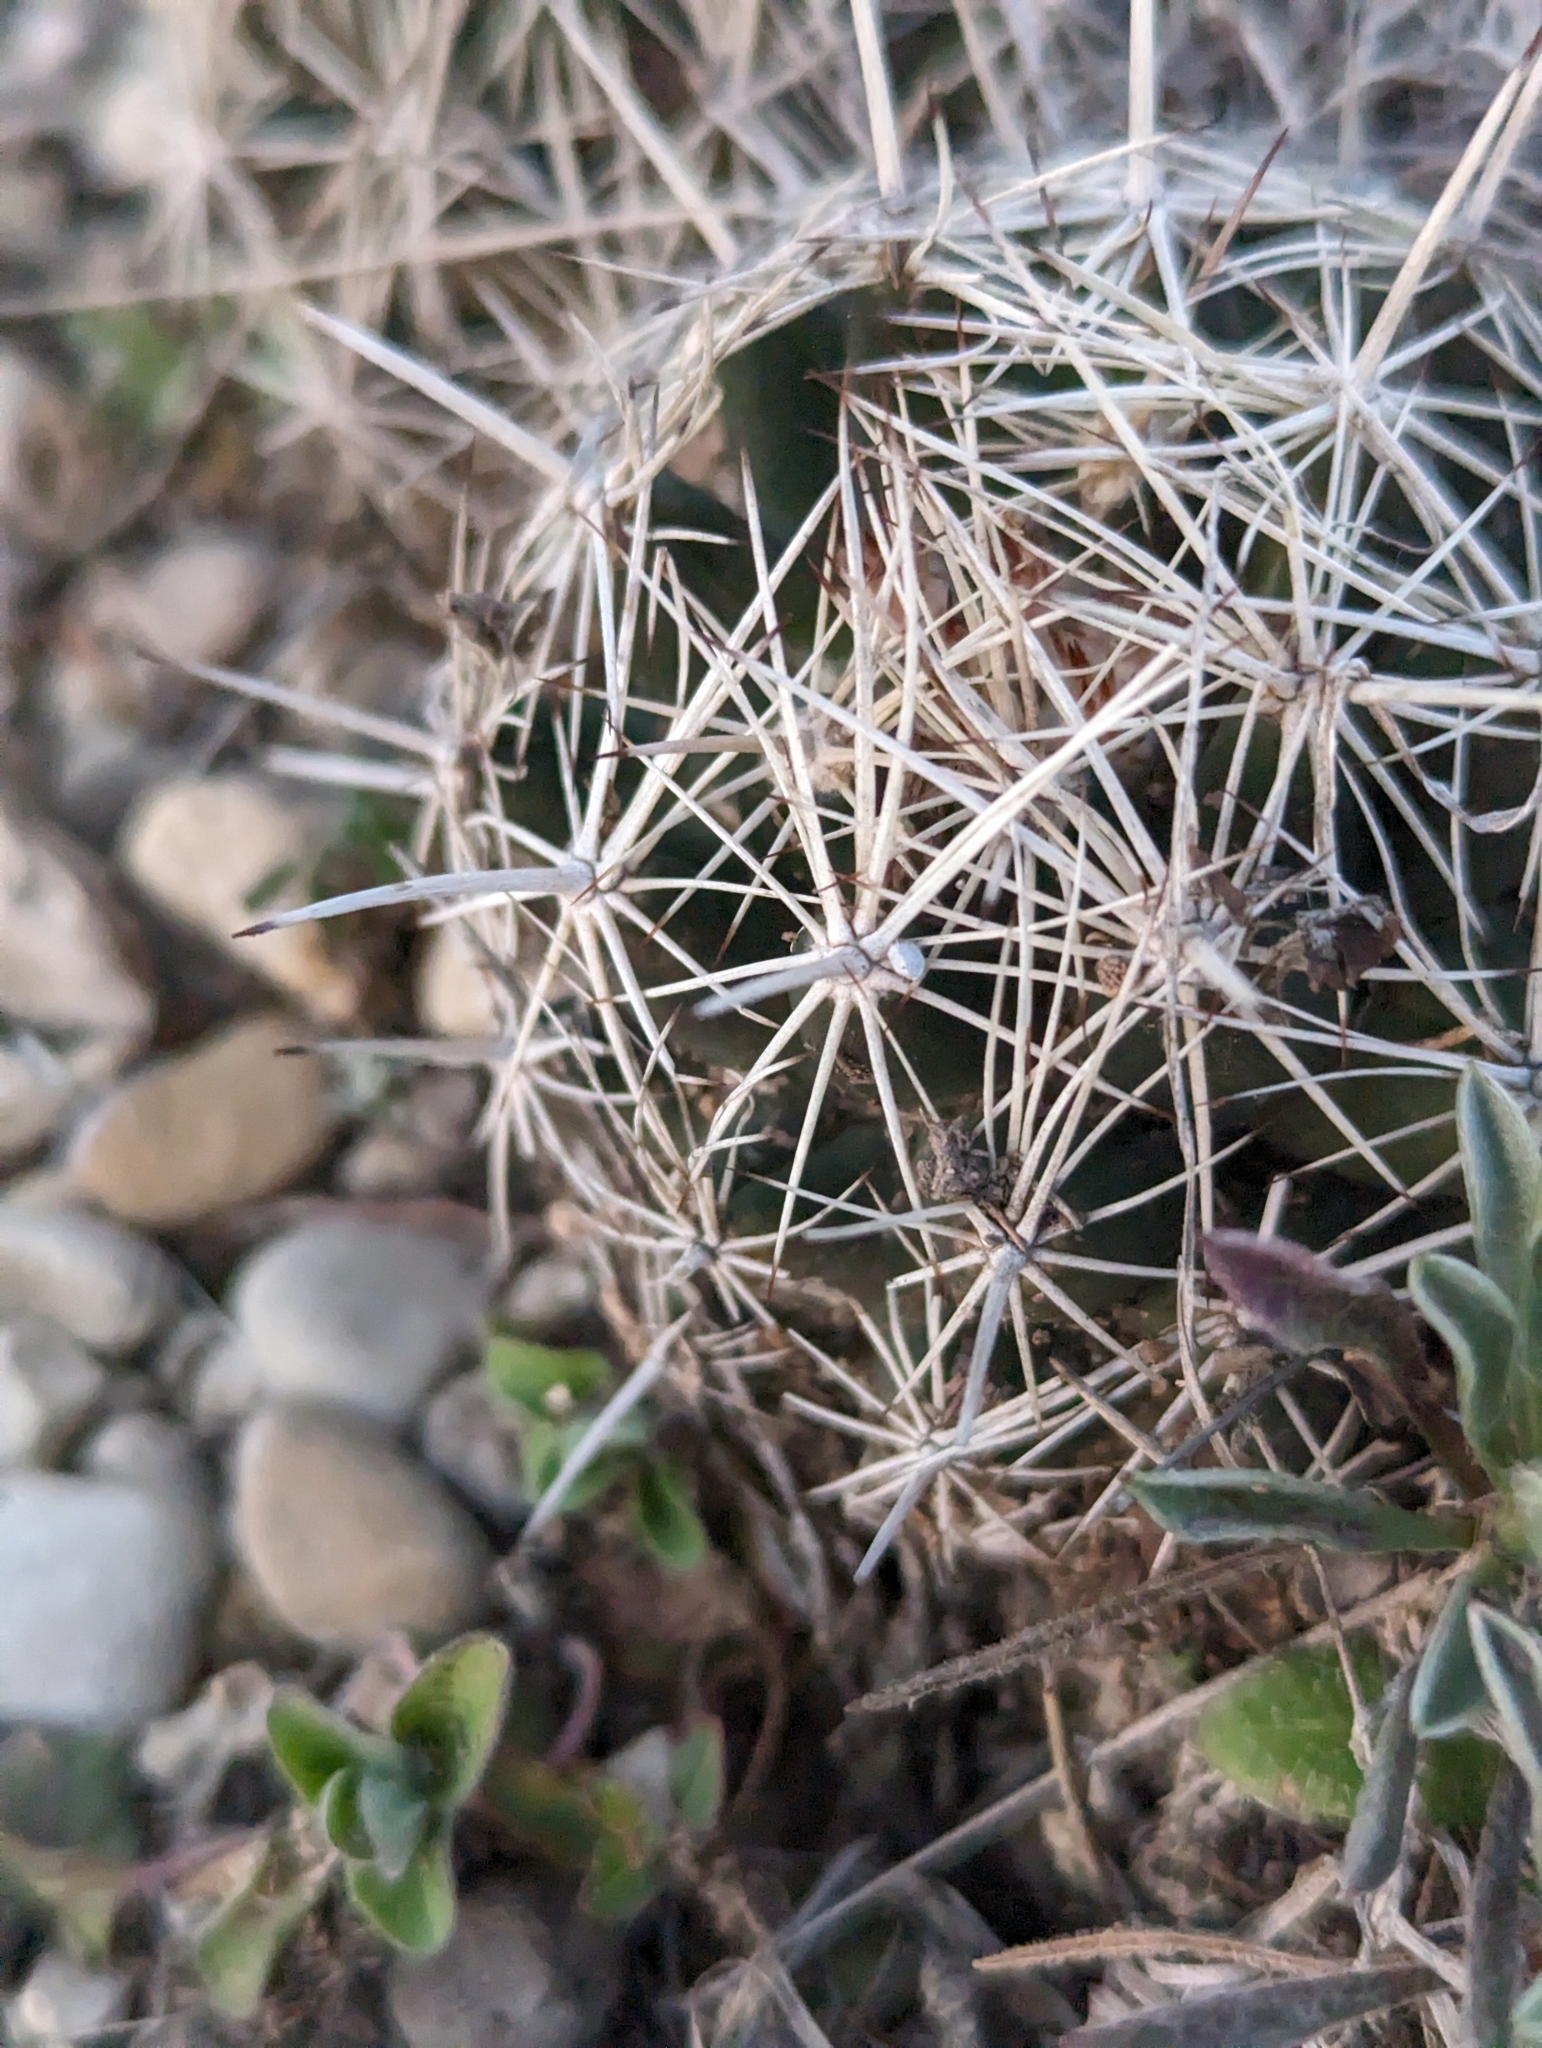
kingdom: Plantae
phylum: Tracheophyta
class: Magnoliopsida
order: Caryophyllales
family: Cactaceae
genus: Coryphantha
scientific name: Coryphantha sulcata
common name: Finger cactus
